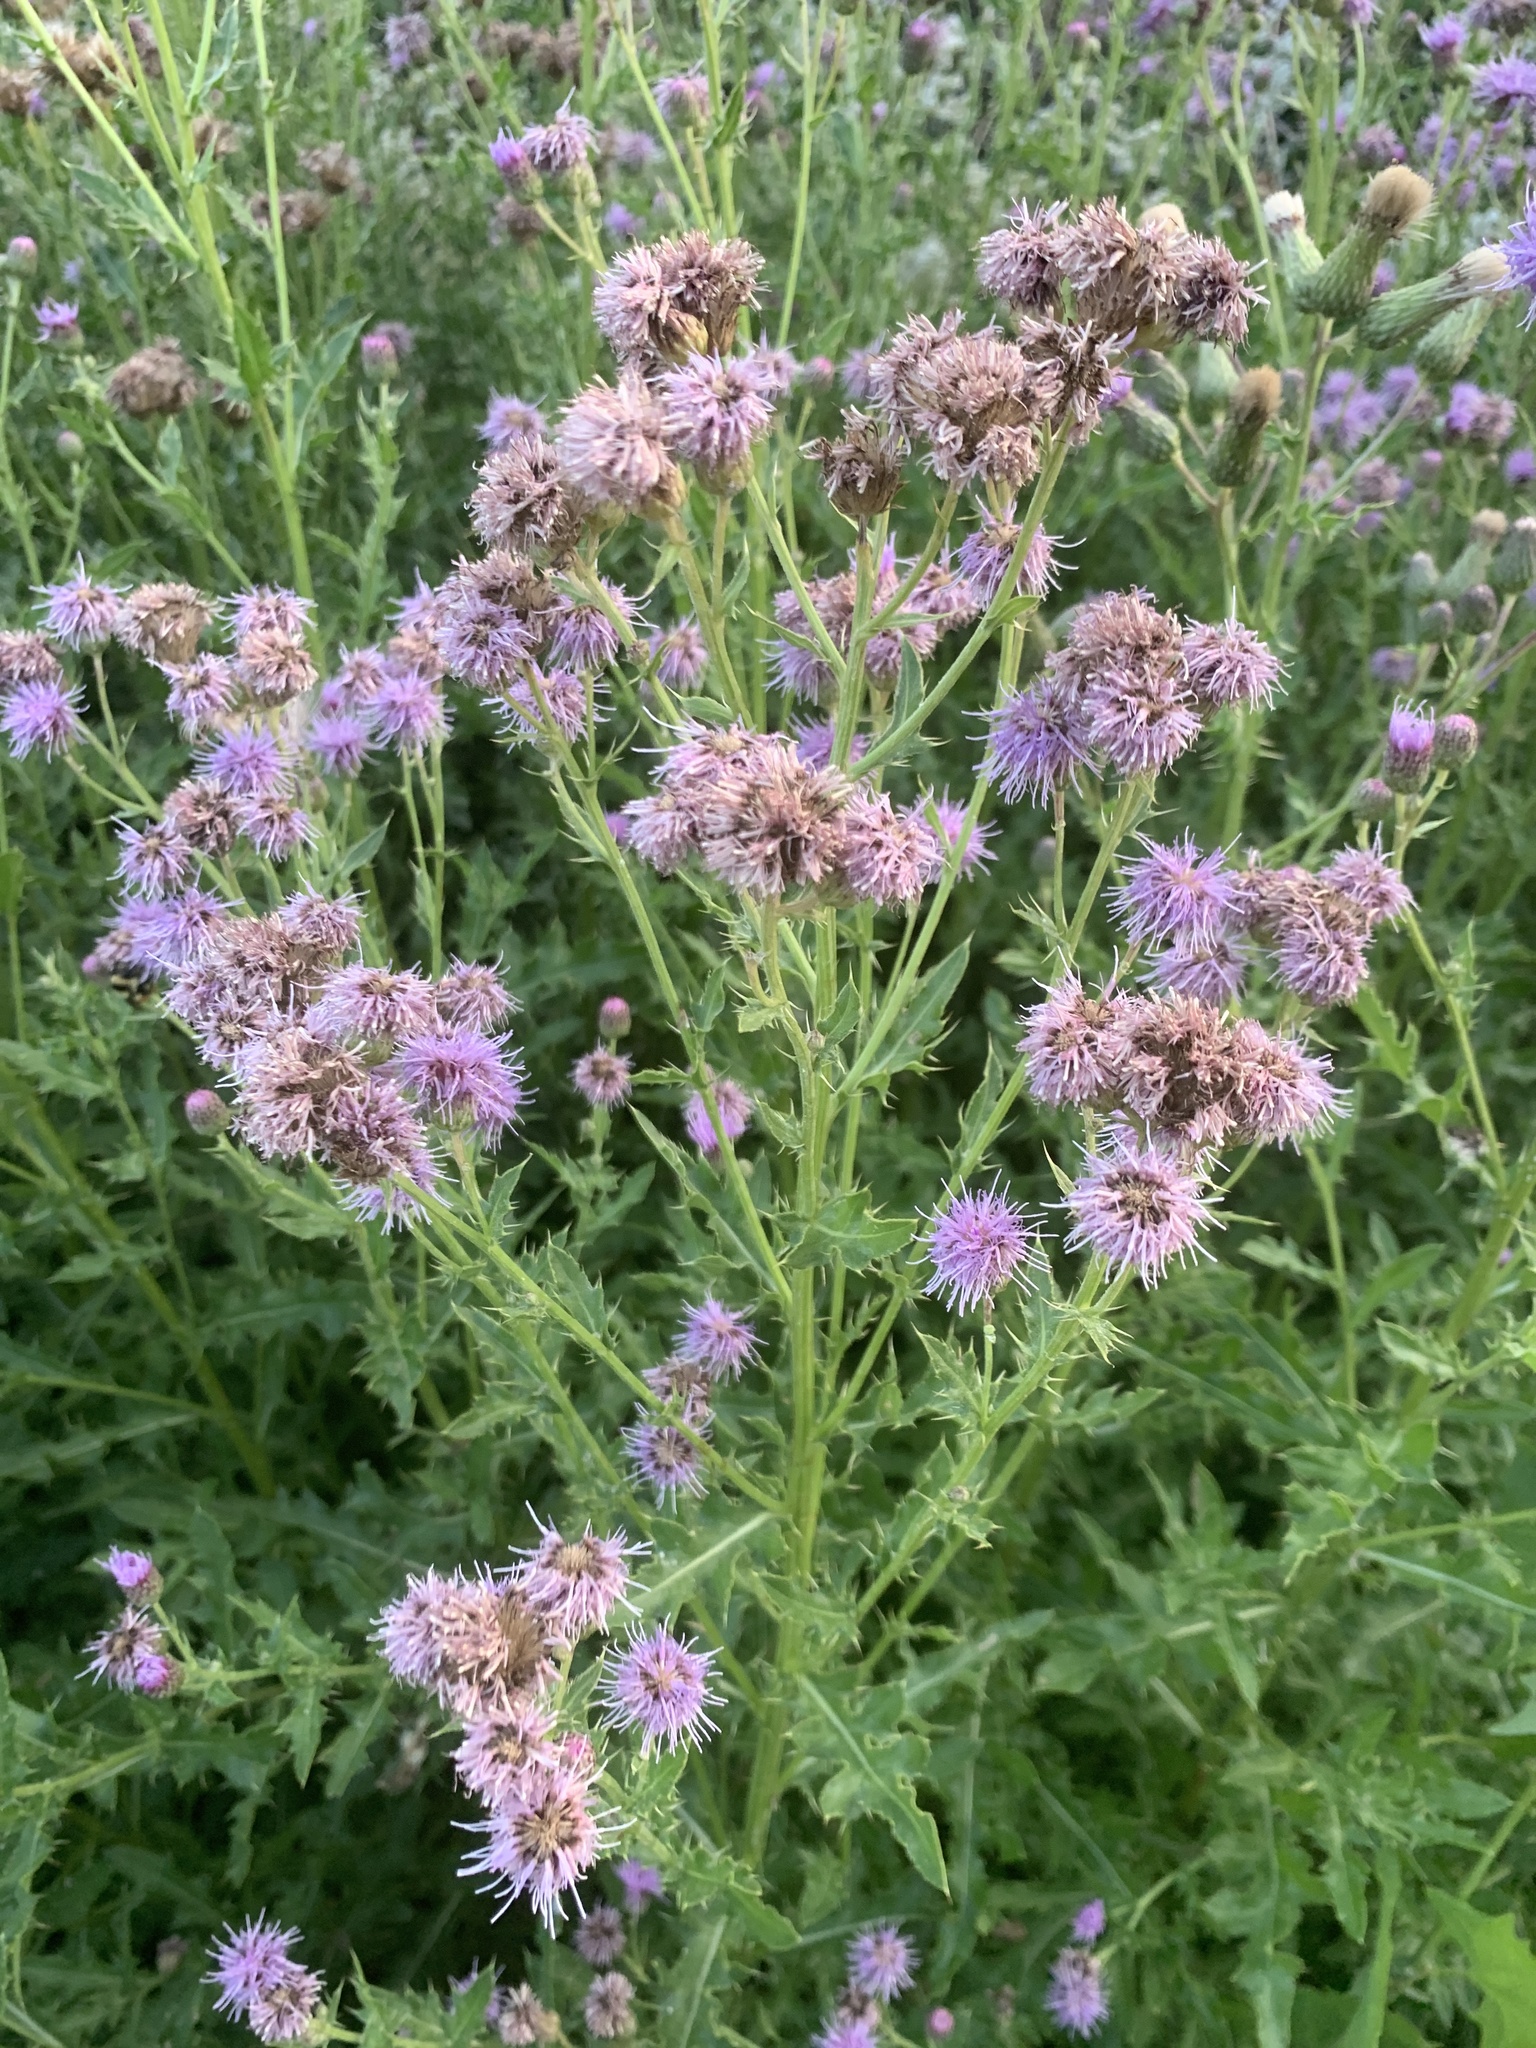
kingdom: Plantae
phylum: Tracheophyta
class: Magnoliopsida
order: Asterales
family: Asteraceae
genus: Cirsium
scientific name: Cirsium arvense
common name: Creeping thistle
